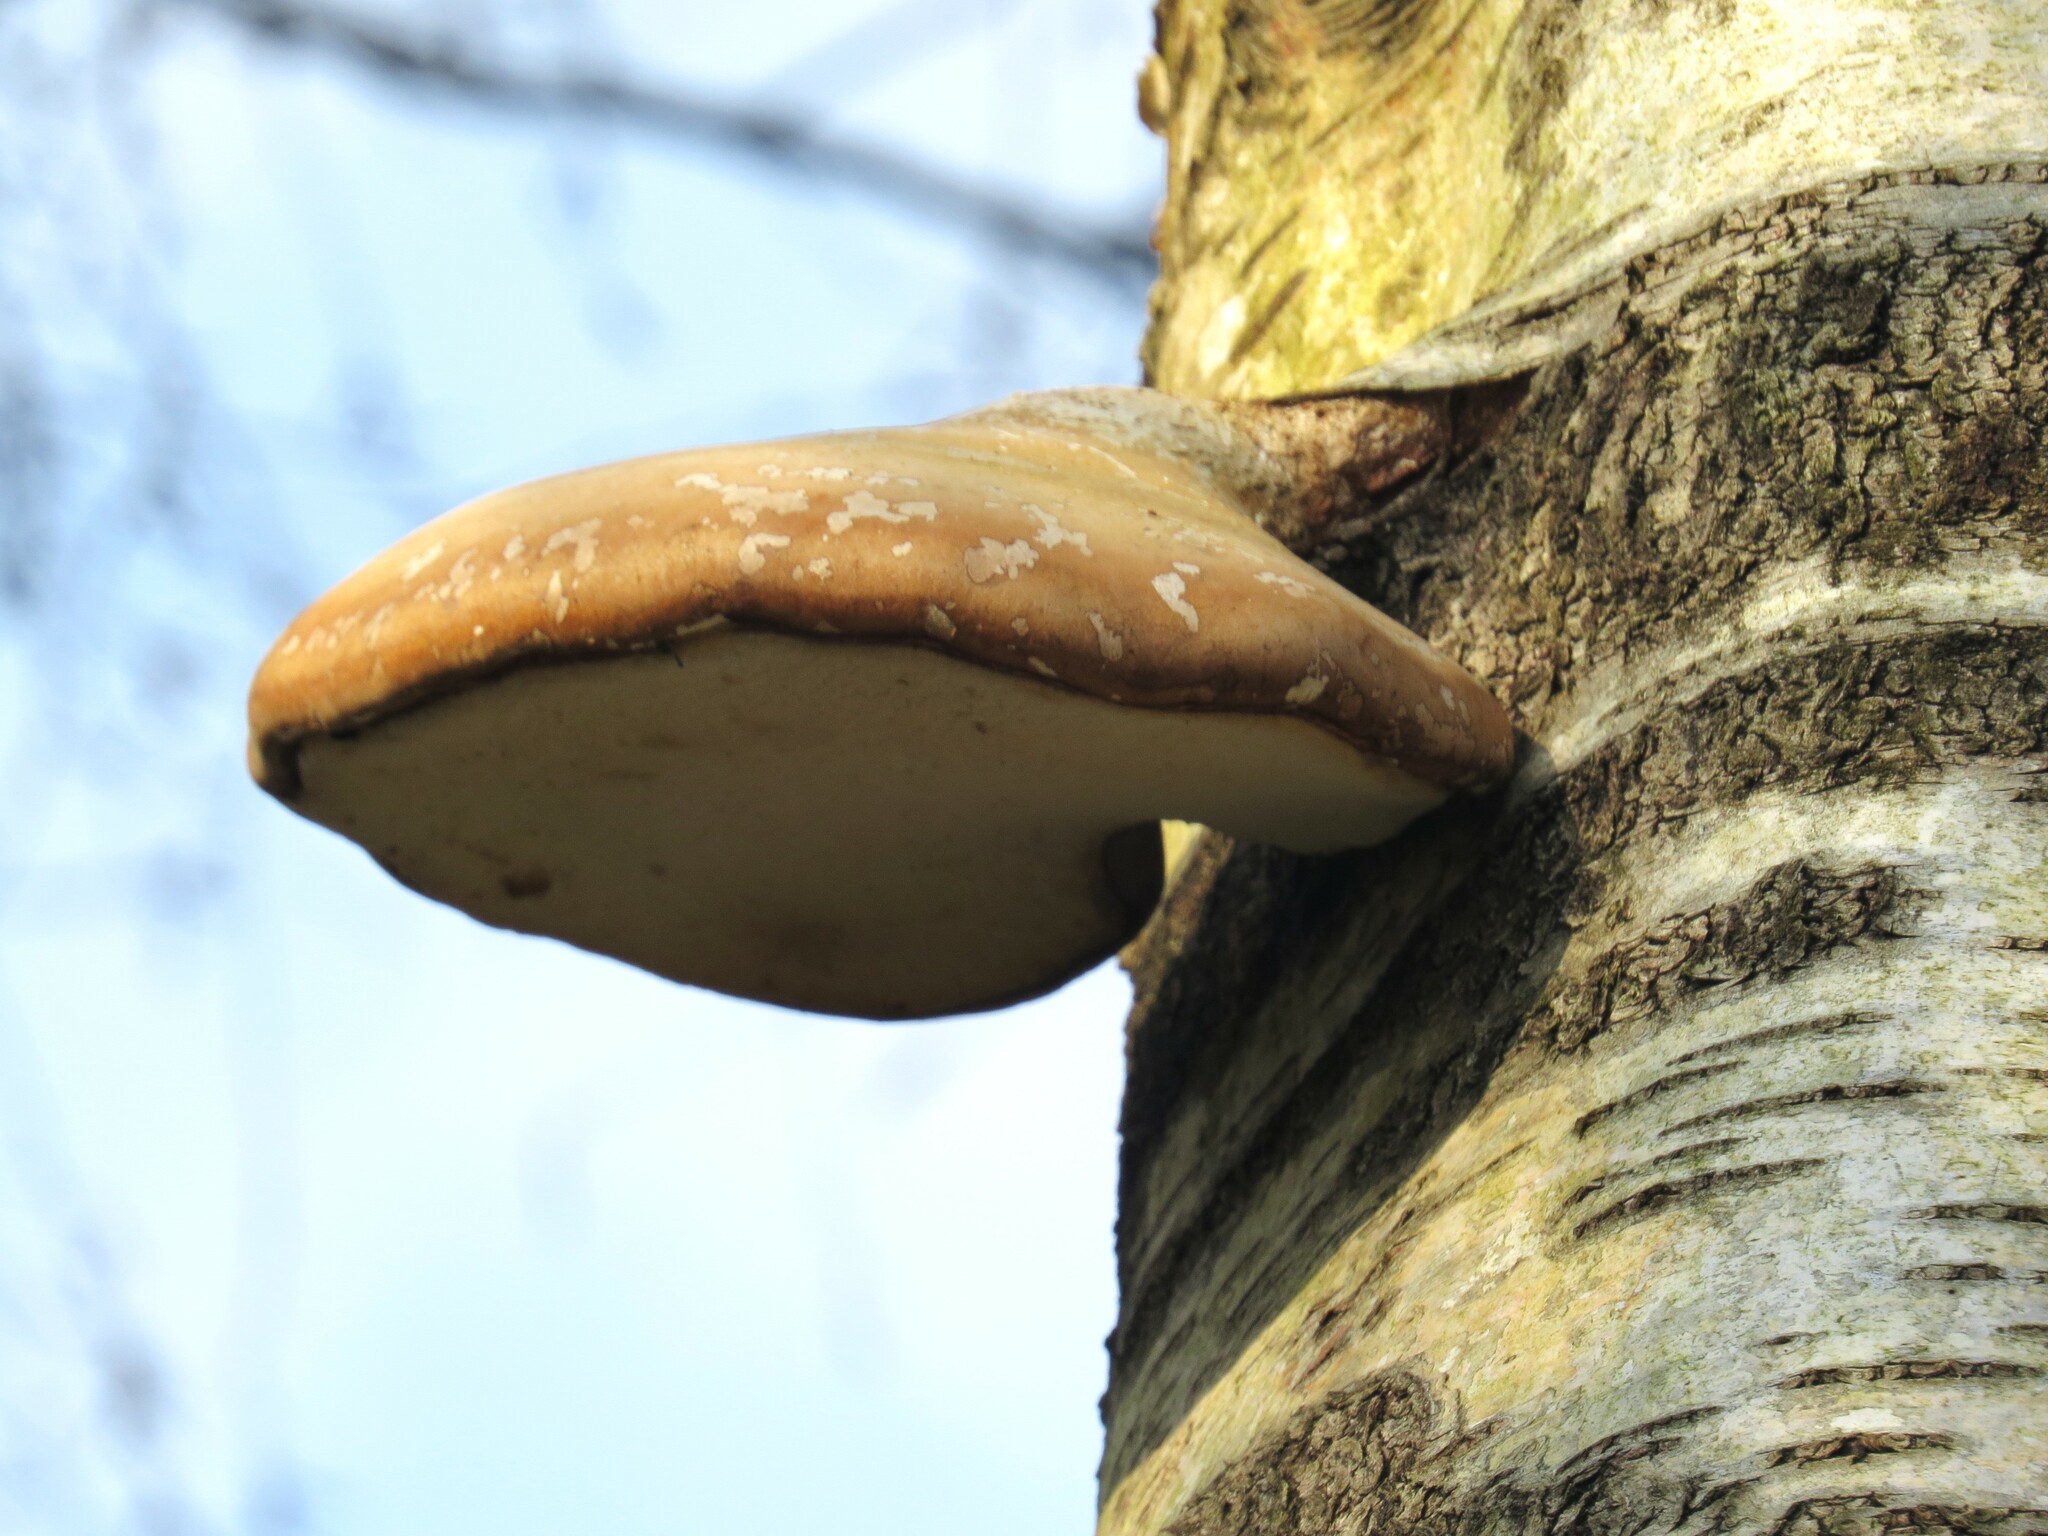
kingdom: Fungi
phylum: Basidiomycota
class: Agaricomycetes
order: Polyporales
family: Fomitopsidaceae
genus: Fomitopsis
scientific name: Fomitopsis betulina
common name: Birch polypore
